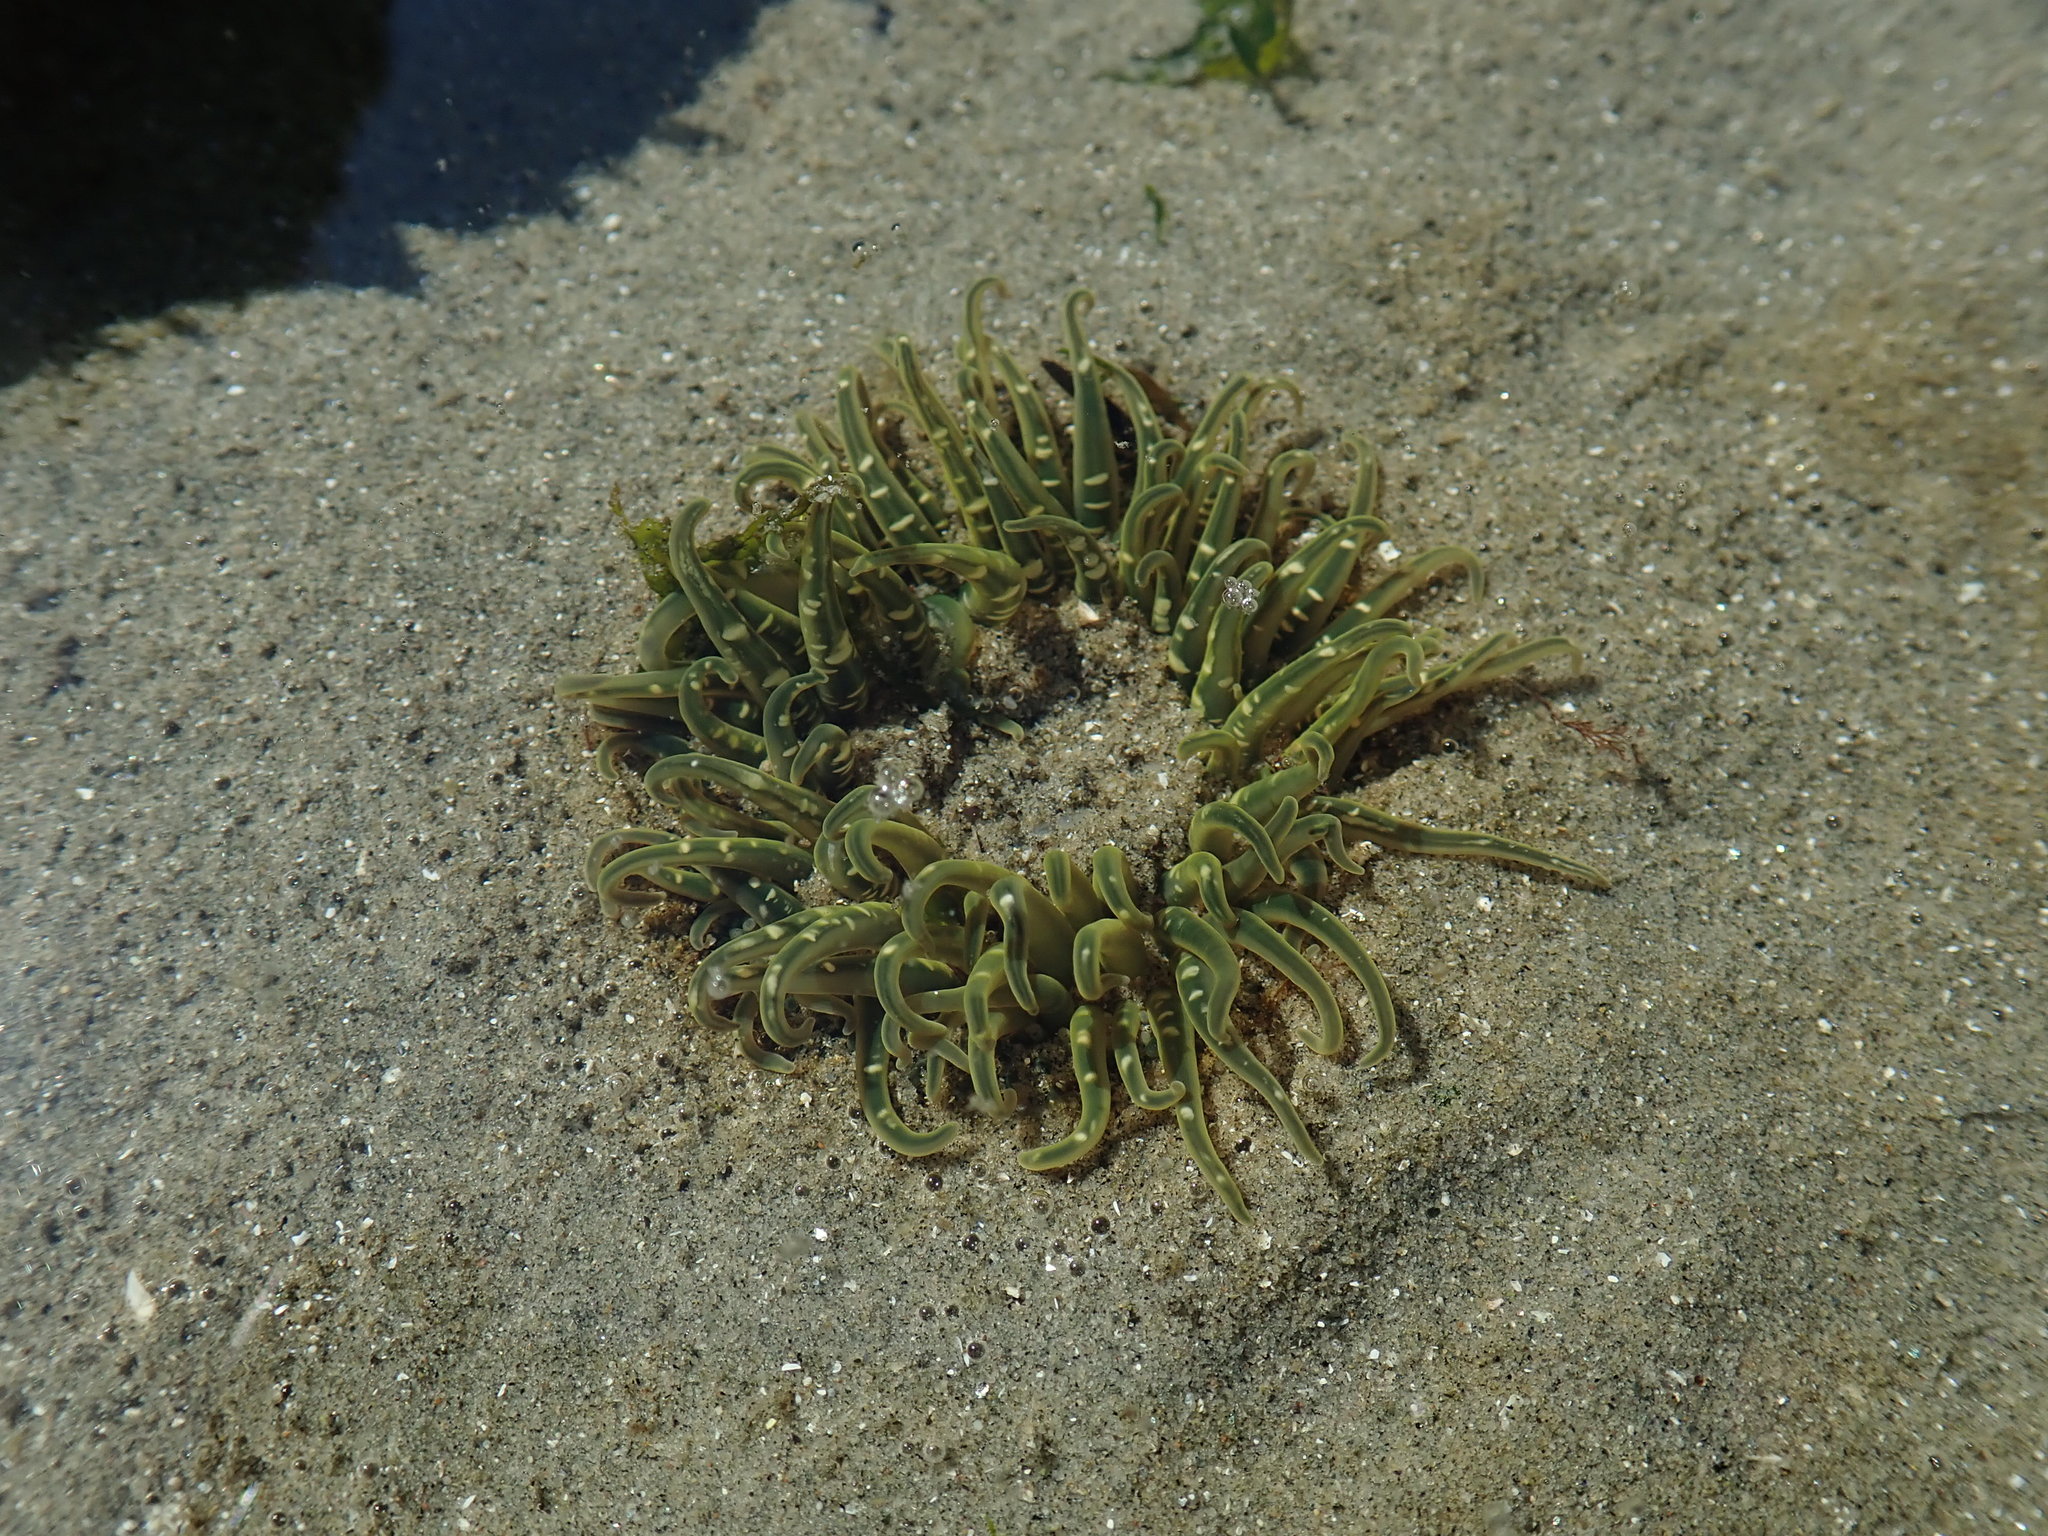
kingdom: Animalia
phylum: Cnidaria
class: Anthozoa
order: Actiniaria
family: Actiniidae
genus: Anthopleura
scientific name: Anthopleura artemisia
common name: Buried sea anemone
